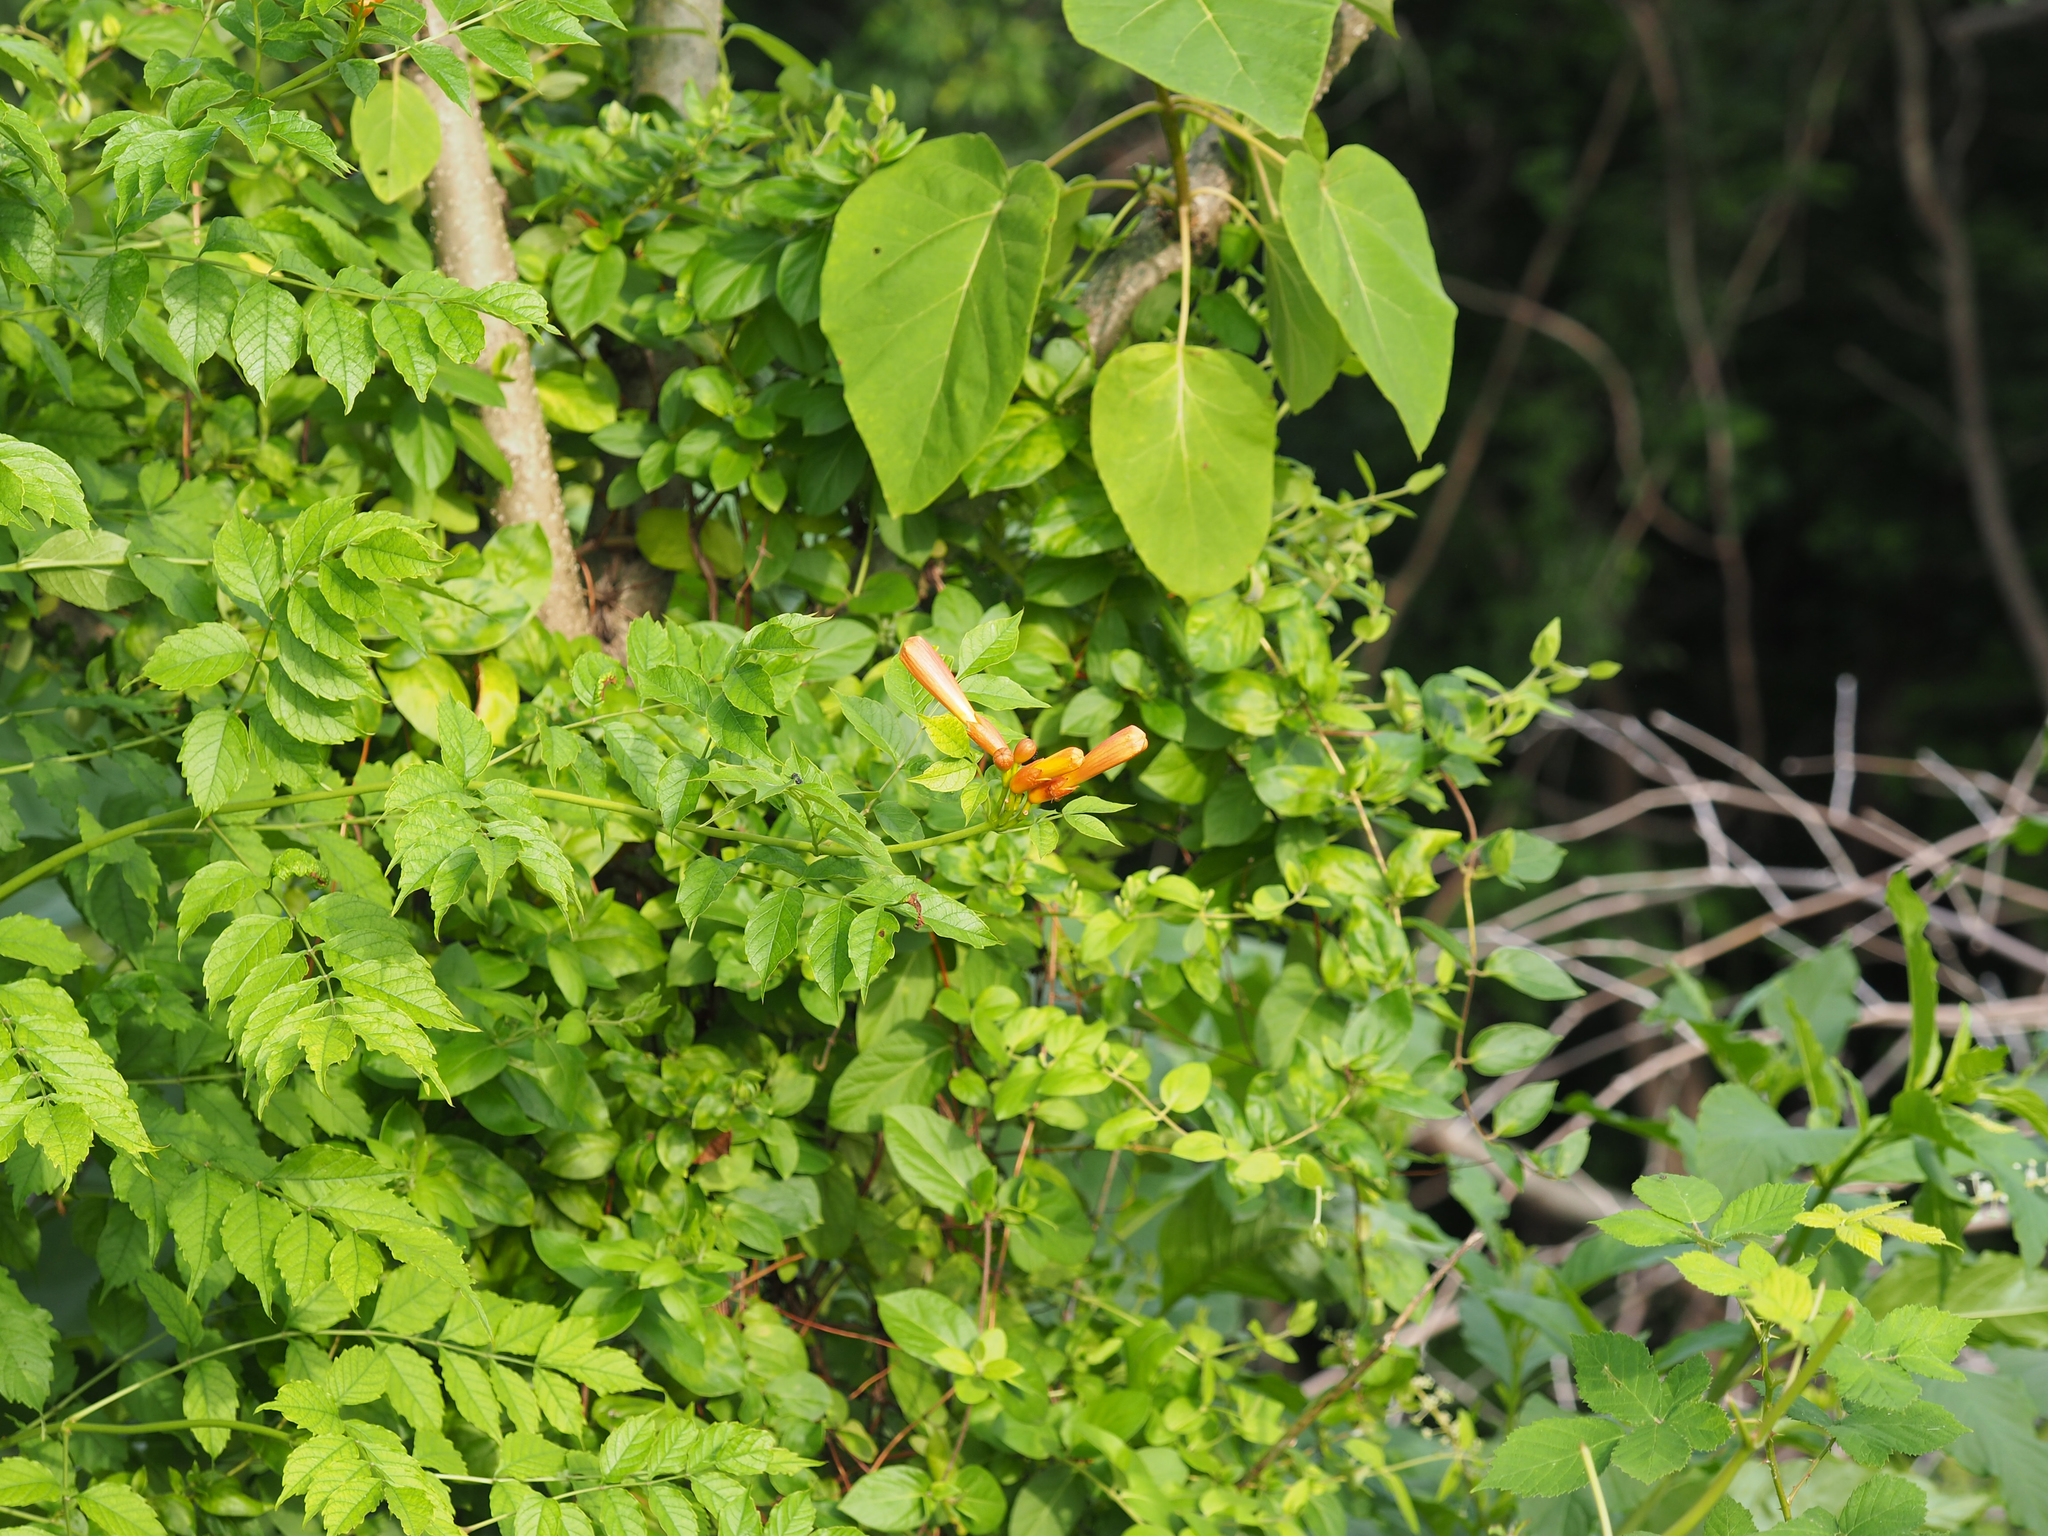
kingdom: Plantae
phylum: Tracheophyta
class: Magnoliopsida
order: Lamiales
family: Bignoniaceae
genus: Campsis
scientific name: Campsis radicans
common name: Trumpet-creeper
